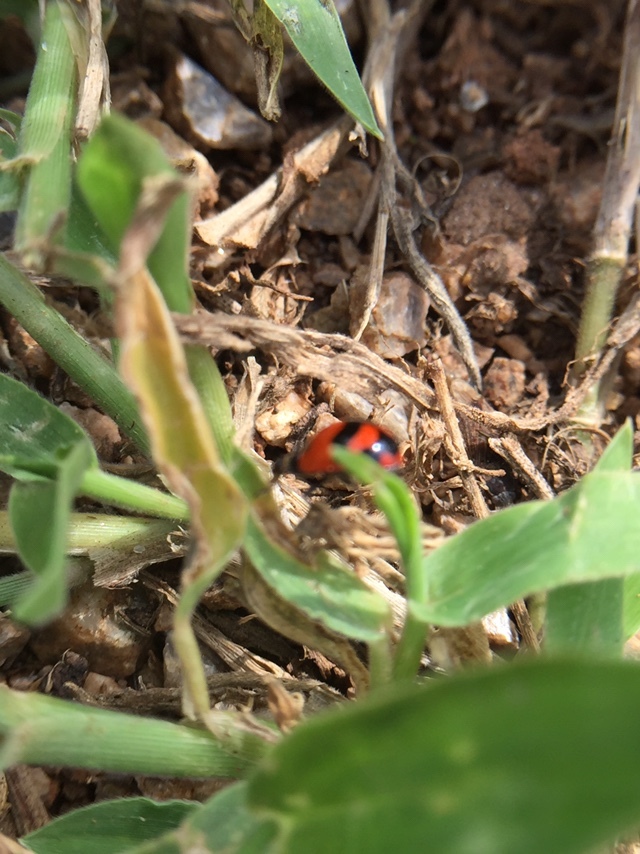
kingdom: Animalia
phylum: Arthropoda
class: Insecta
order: Coleoptera
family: Coccinellidae
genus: Coccinella
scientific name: Coccinella transversalis
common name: Transverse lady beetle
